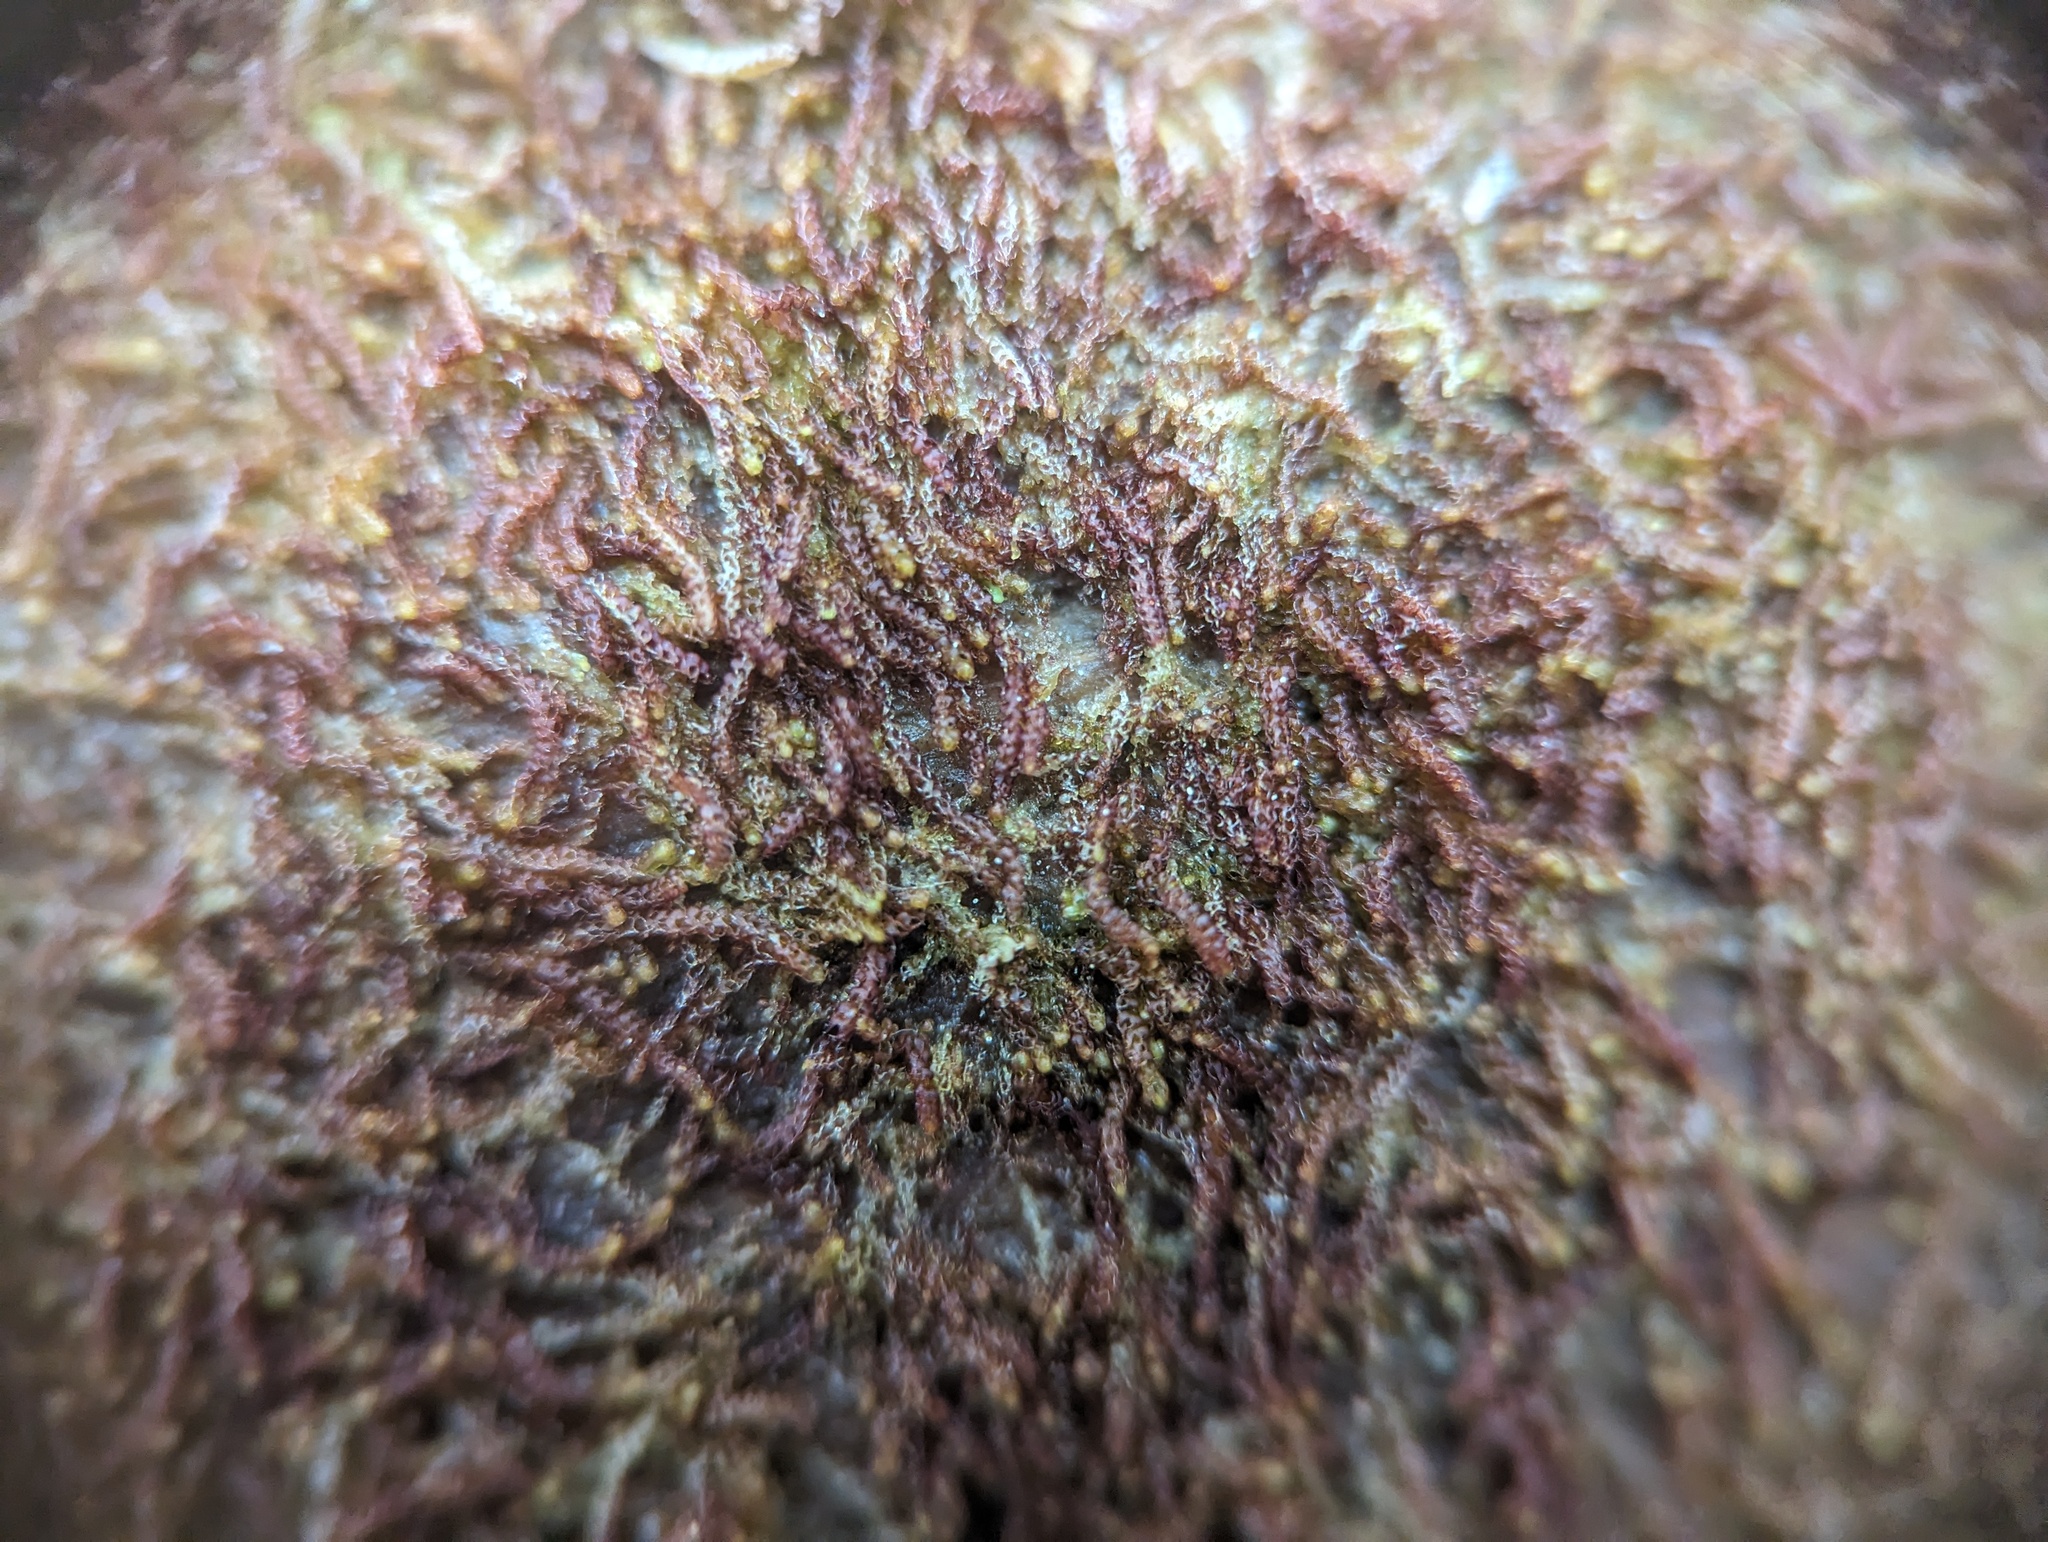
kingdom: Plantae
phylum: Marchantiophyta
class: Jungermanniopsida
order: Jungermanniales
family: Cephaloziaceae
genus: Nowellia
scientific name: Nowellia curvifolia
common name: Wood rustwort
